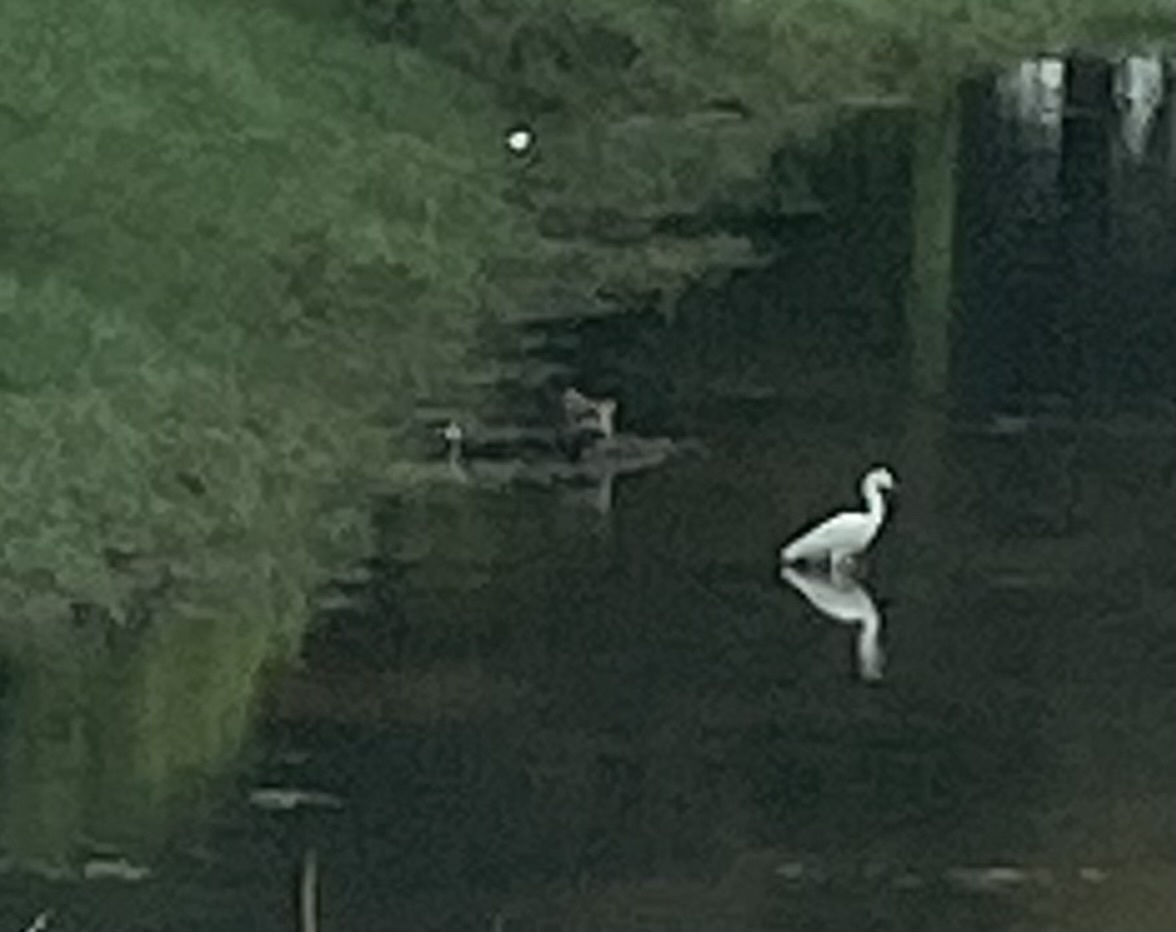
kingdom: Animalia
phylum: Chordata
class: Mammalia
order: Carnivora
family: Procyonidae
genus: Procyon
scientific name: Procyon lotor
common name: Raccoon
